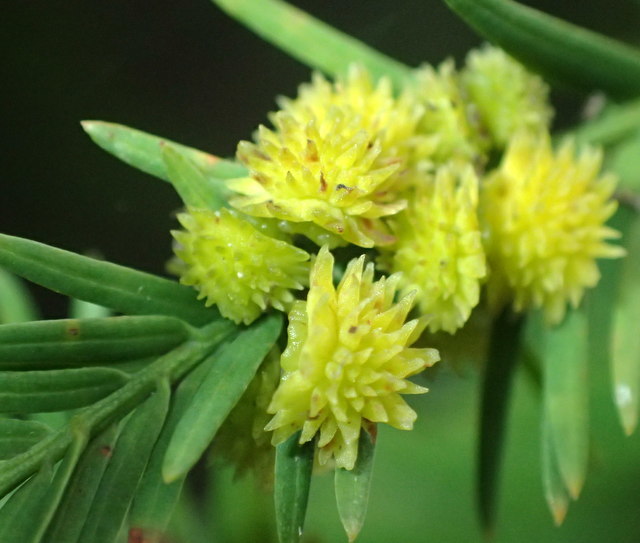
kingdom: Animalia
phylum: Arthropoda
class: Insecta
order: Diptera
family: Cecidomyiidae
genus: Taxodiomyia
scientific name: Taxodiomyia
